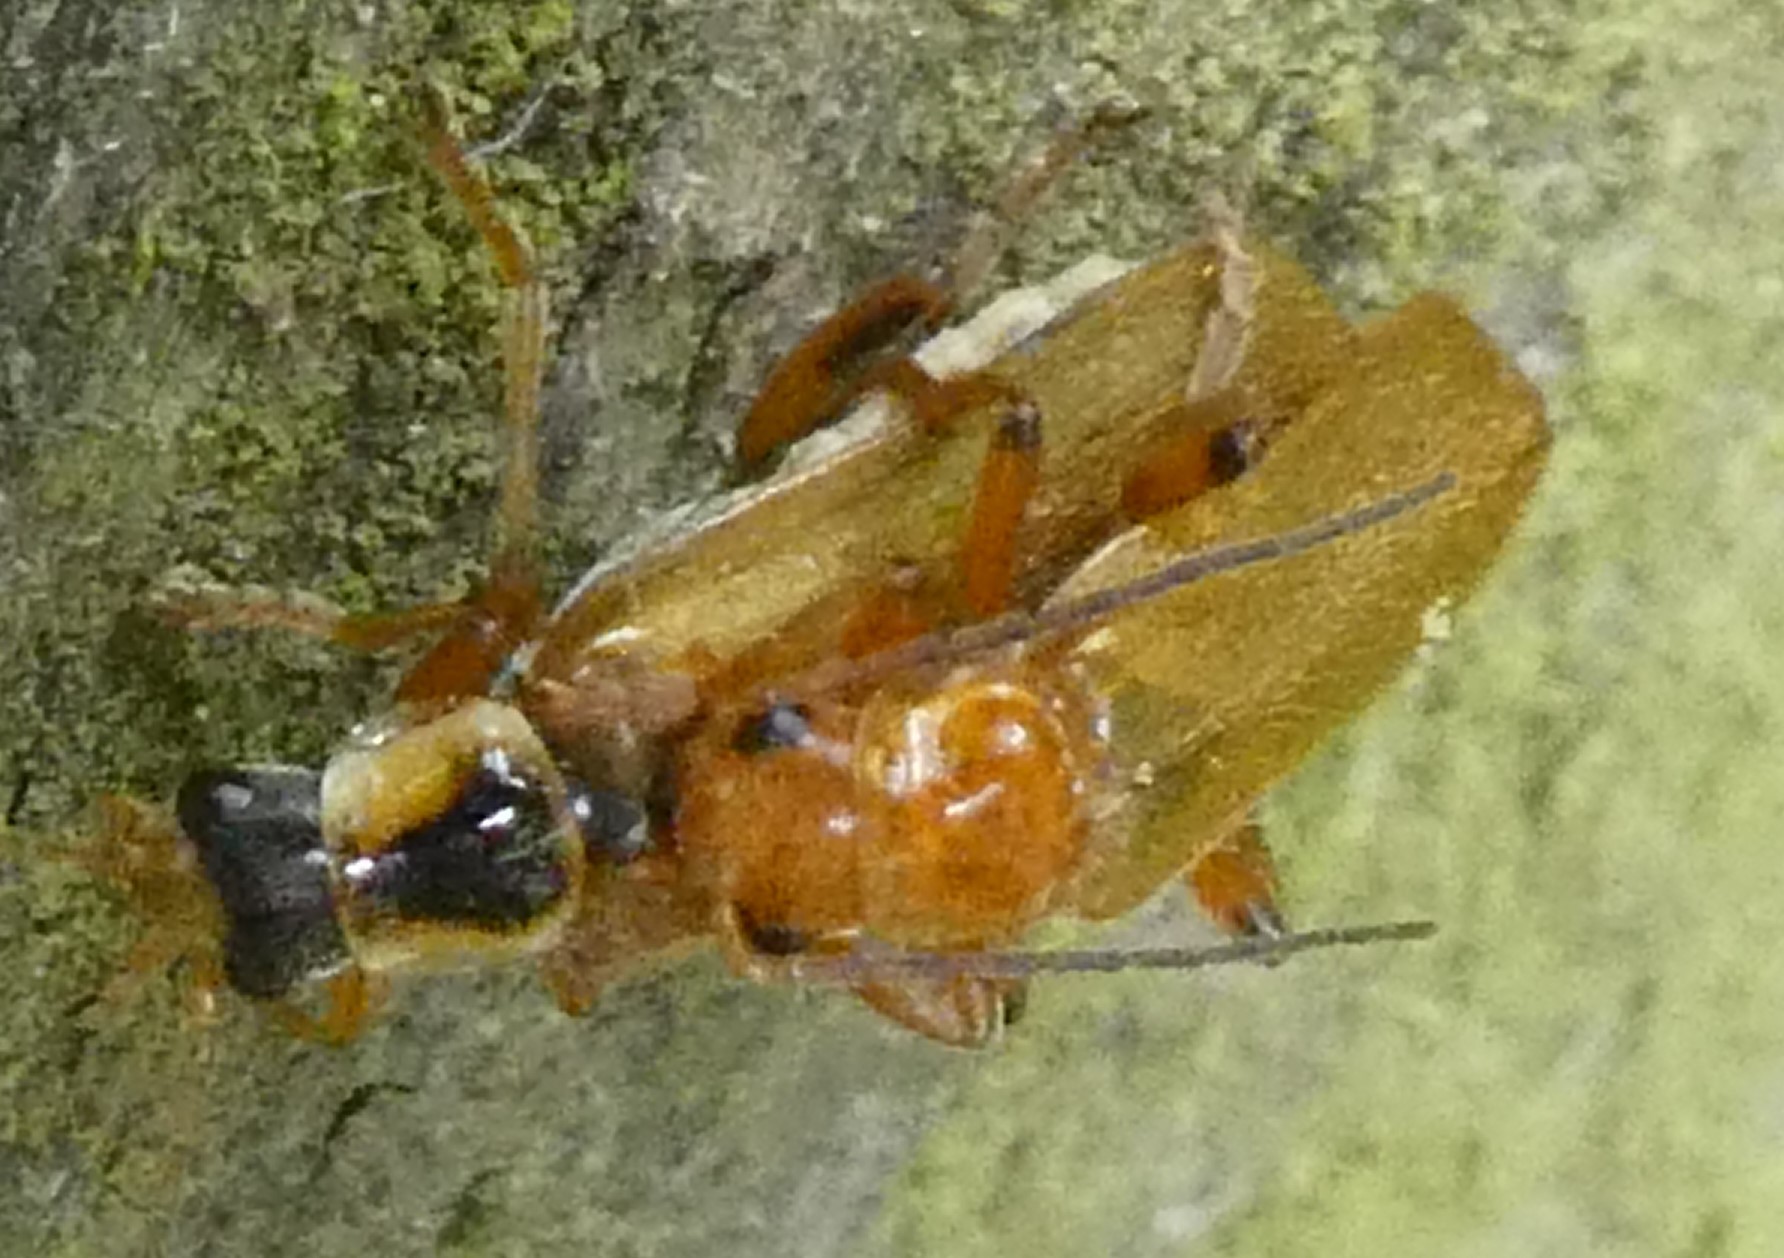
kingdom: Animalia
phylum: Arthropoda
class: Insecta
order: Coleoptera
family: Cantharidae
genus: Cantharis
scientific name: Cantharis decipiens
